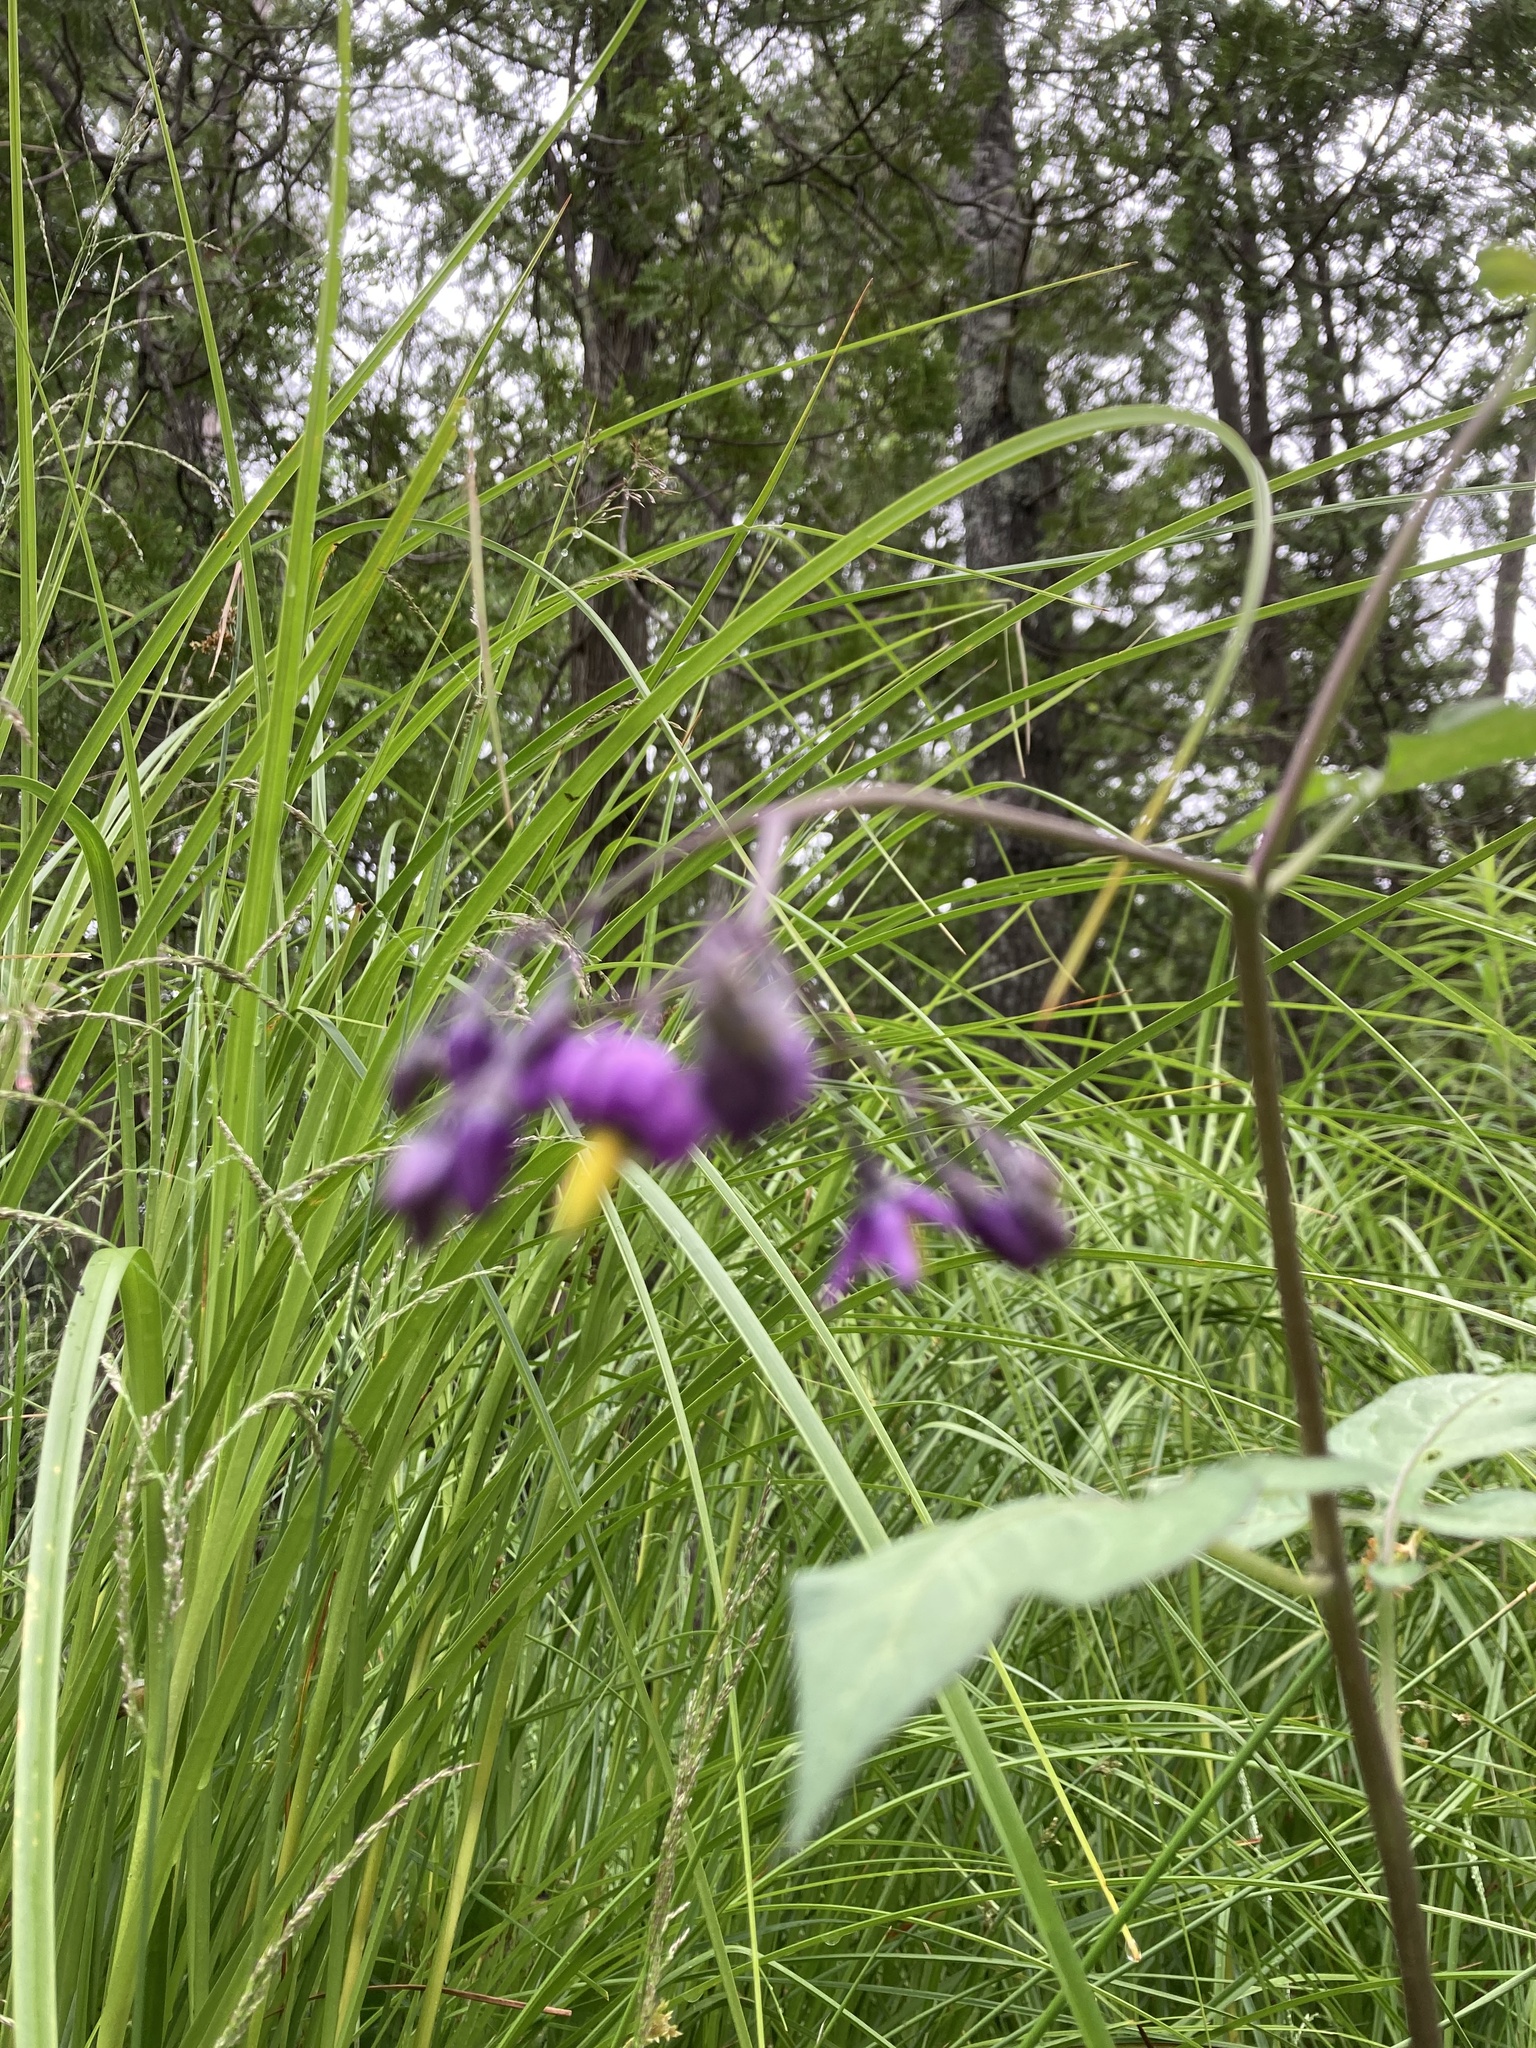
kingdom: Plantae
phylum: Tracheophyta
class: Magnoliopsida
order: Solanales
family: Solanaceae
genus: Solanum
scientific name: Solanum dulcamara
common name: Climbing nightshade
